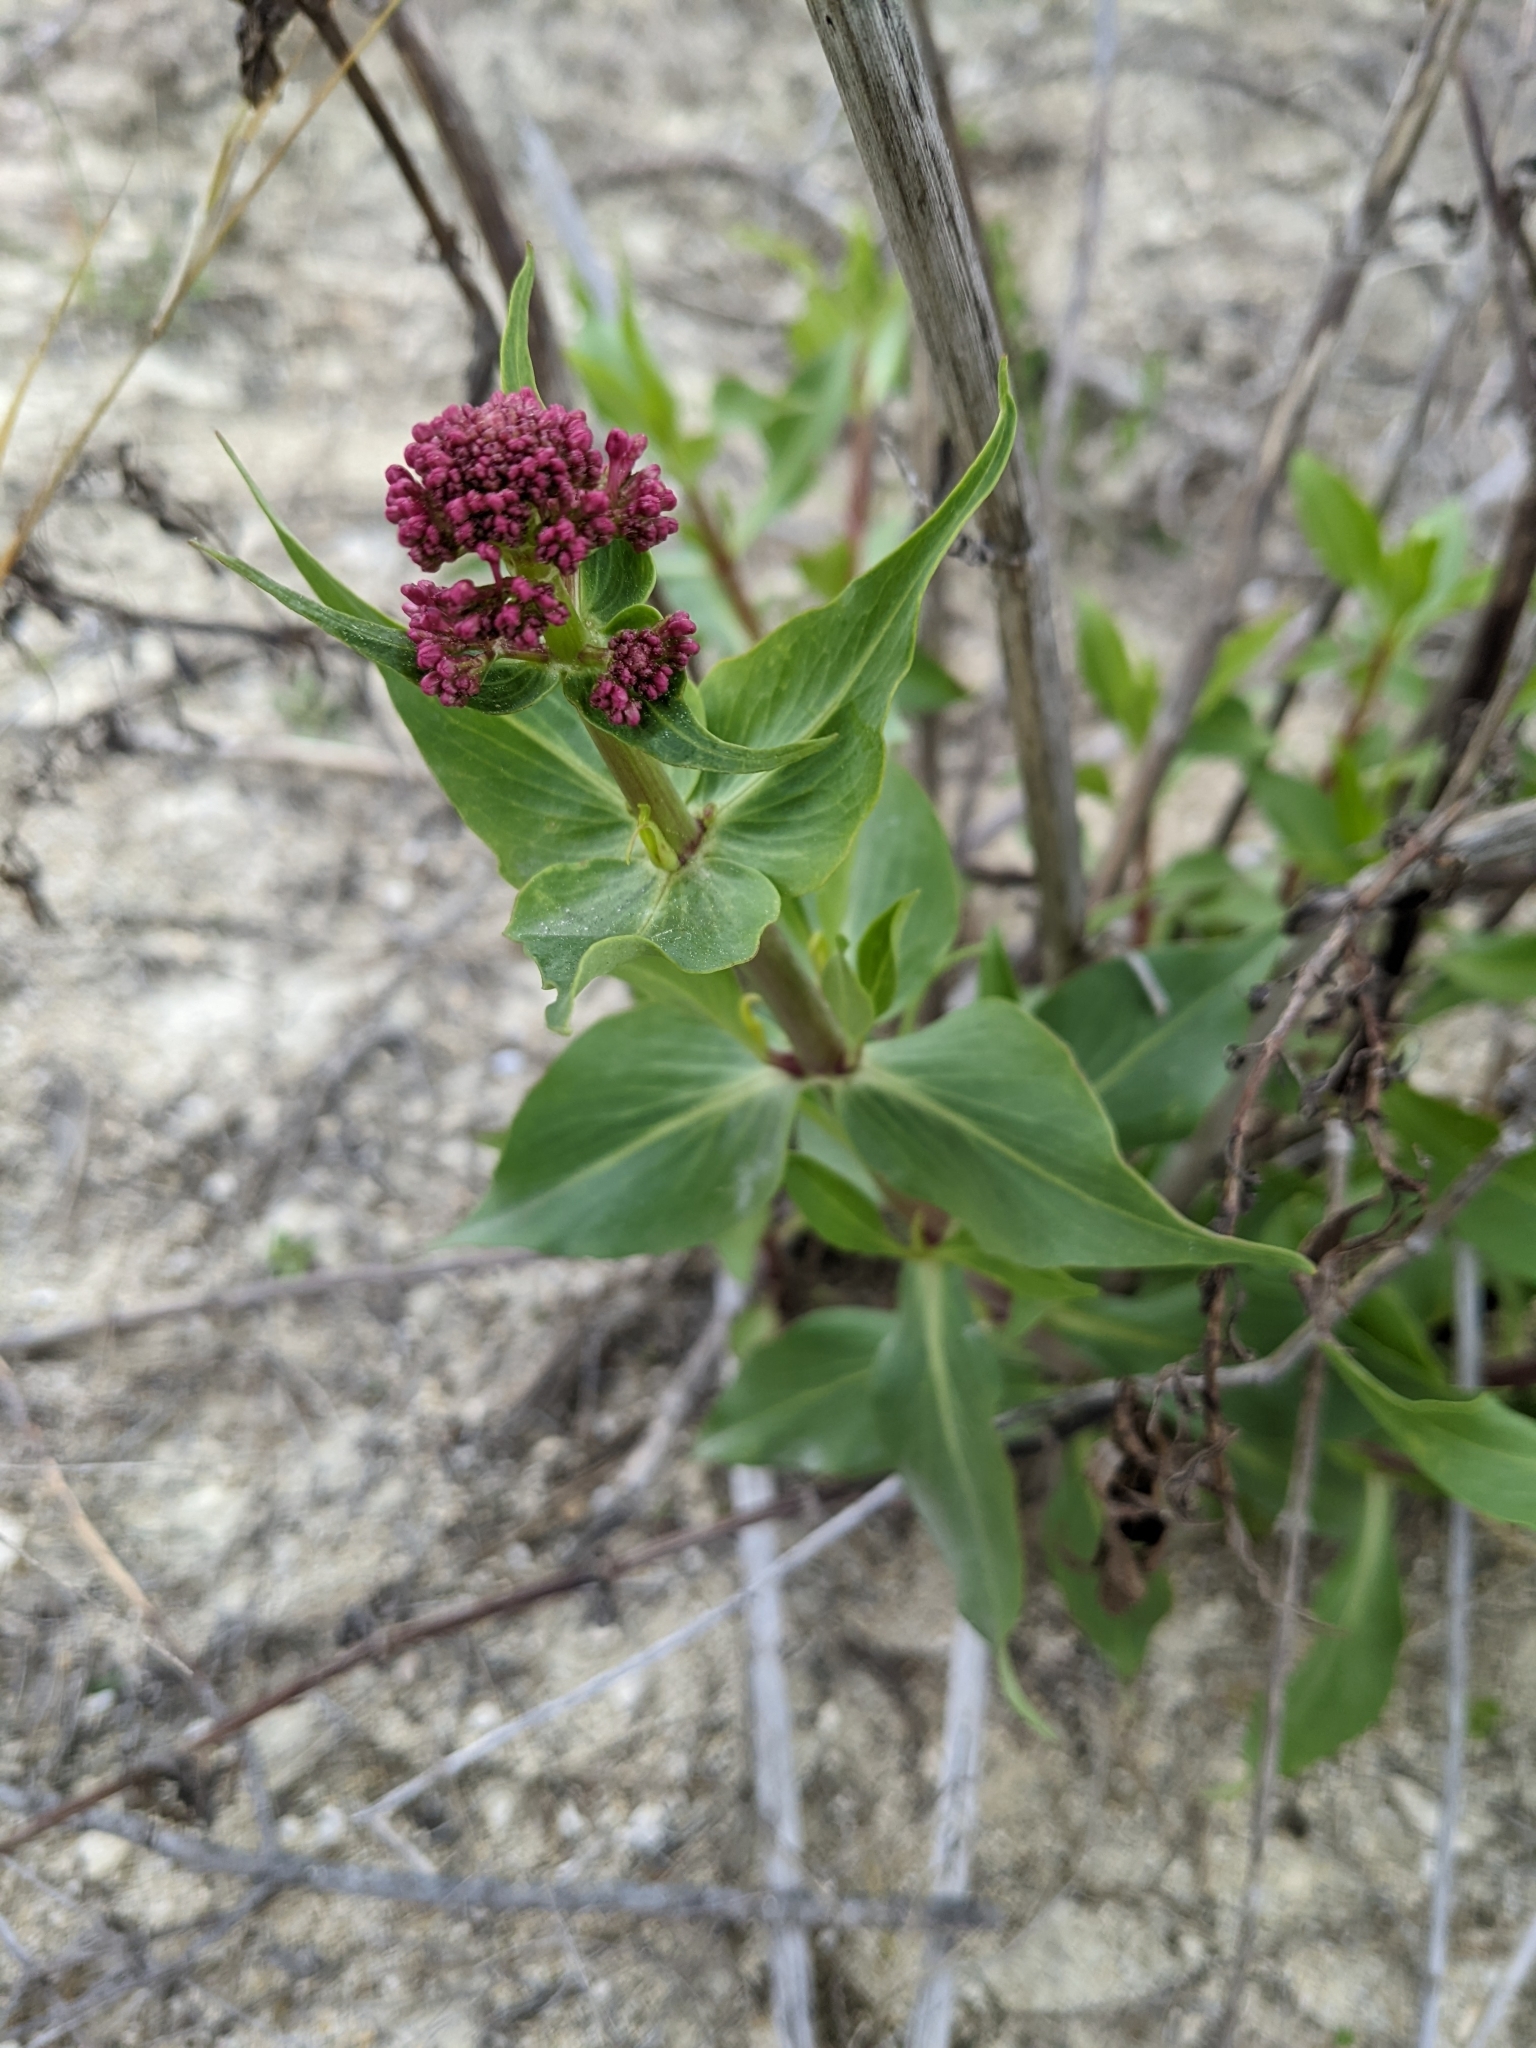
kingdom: Plantae
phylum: Tracheophyta
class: Magnoliopsida
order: Dipsacales
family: Caprifoliaceae
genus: Centranthus
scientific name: Centranthus ruber
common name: Red valerian
